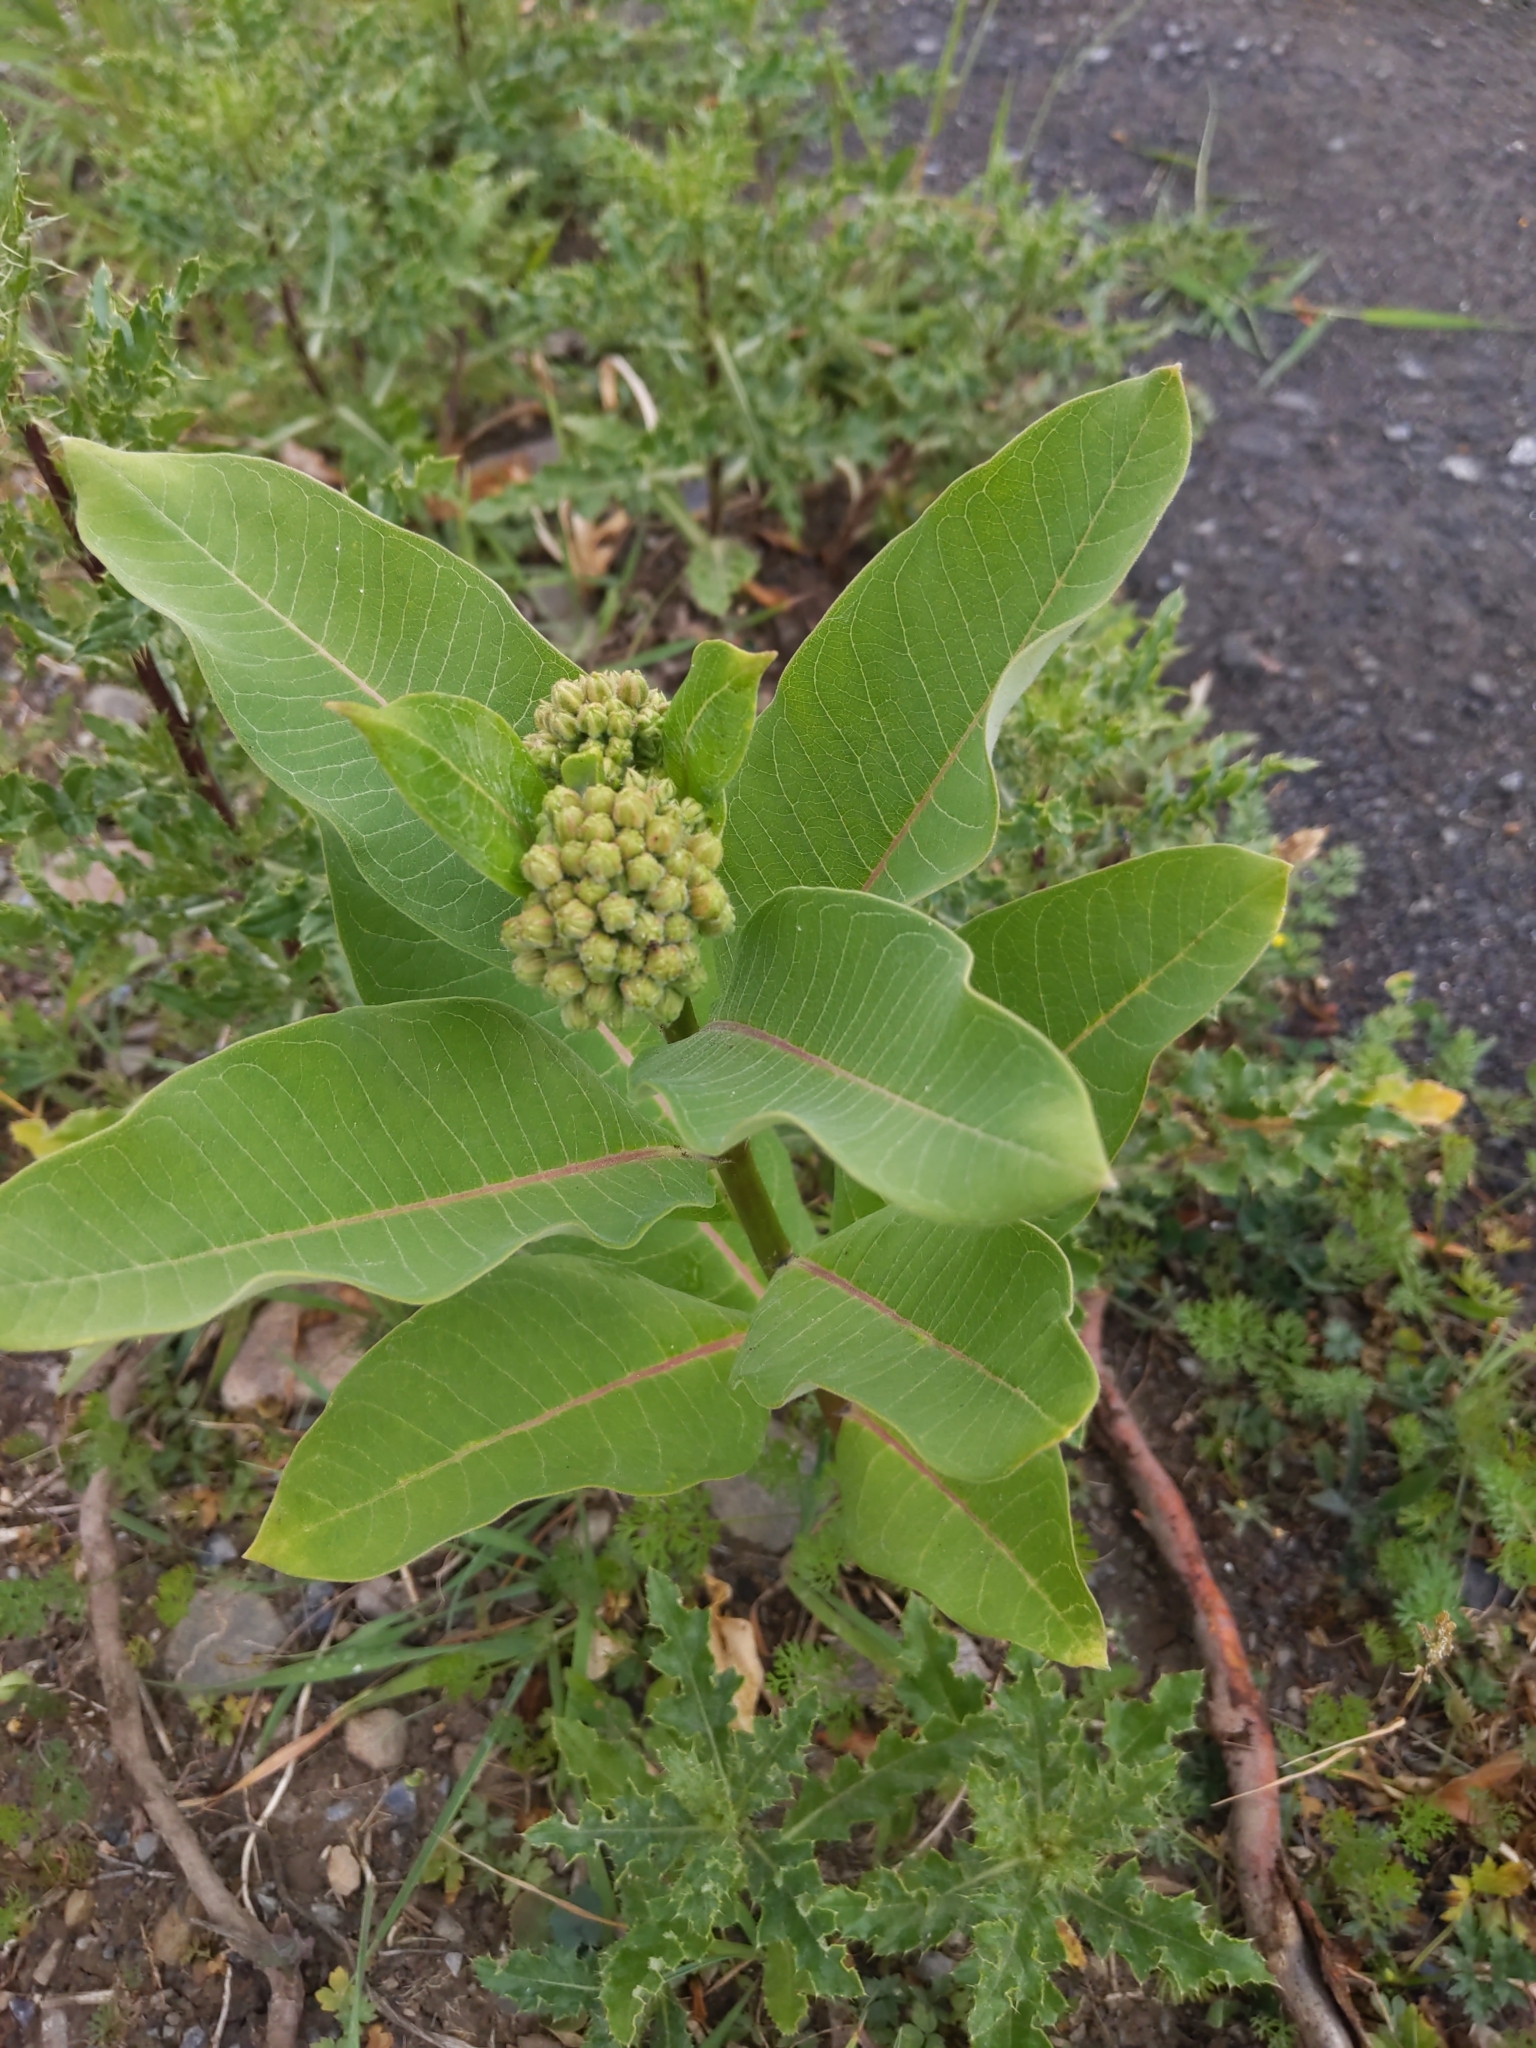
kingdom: Plantae
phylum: Tracheophyta
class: Magnoliopsida
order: Gentianales
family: Apocynaceae
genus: Asclepias
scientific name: Asclepias syriaca
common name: Common milkweed
